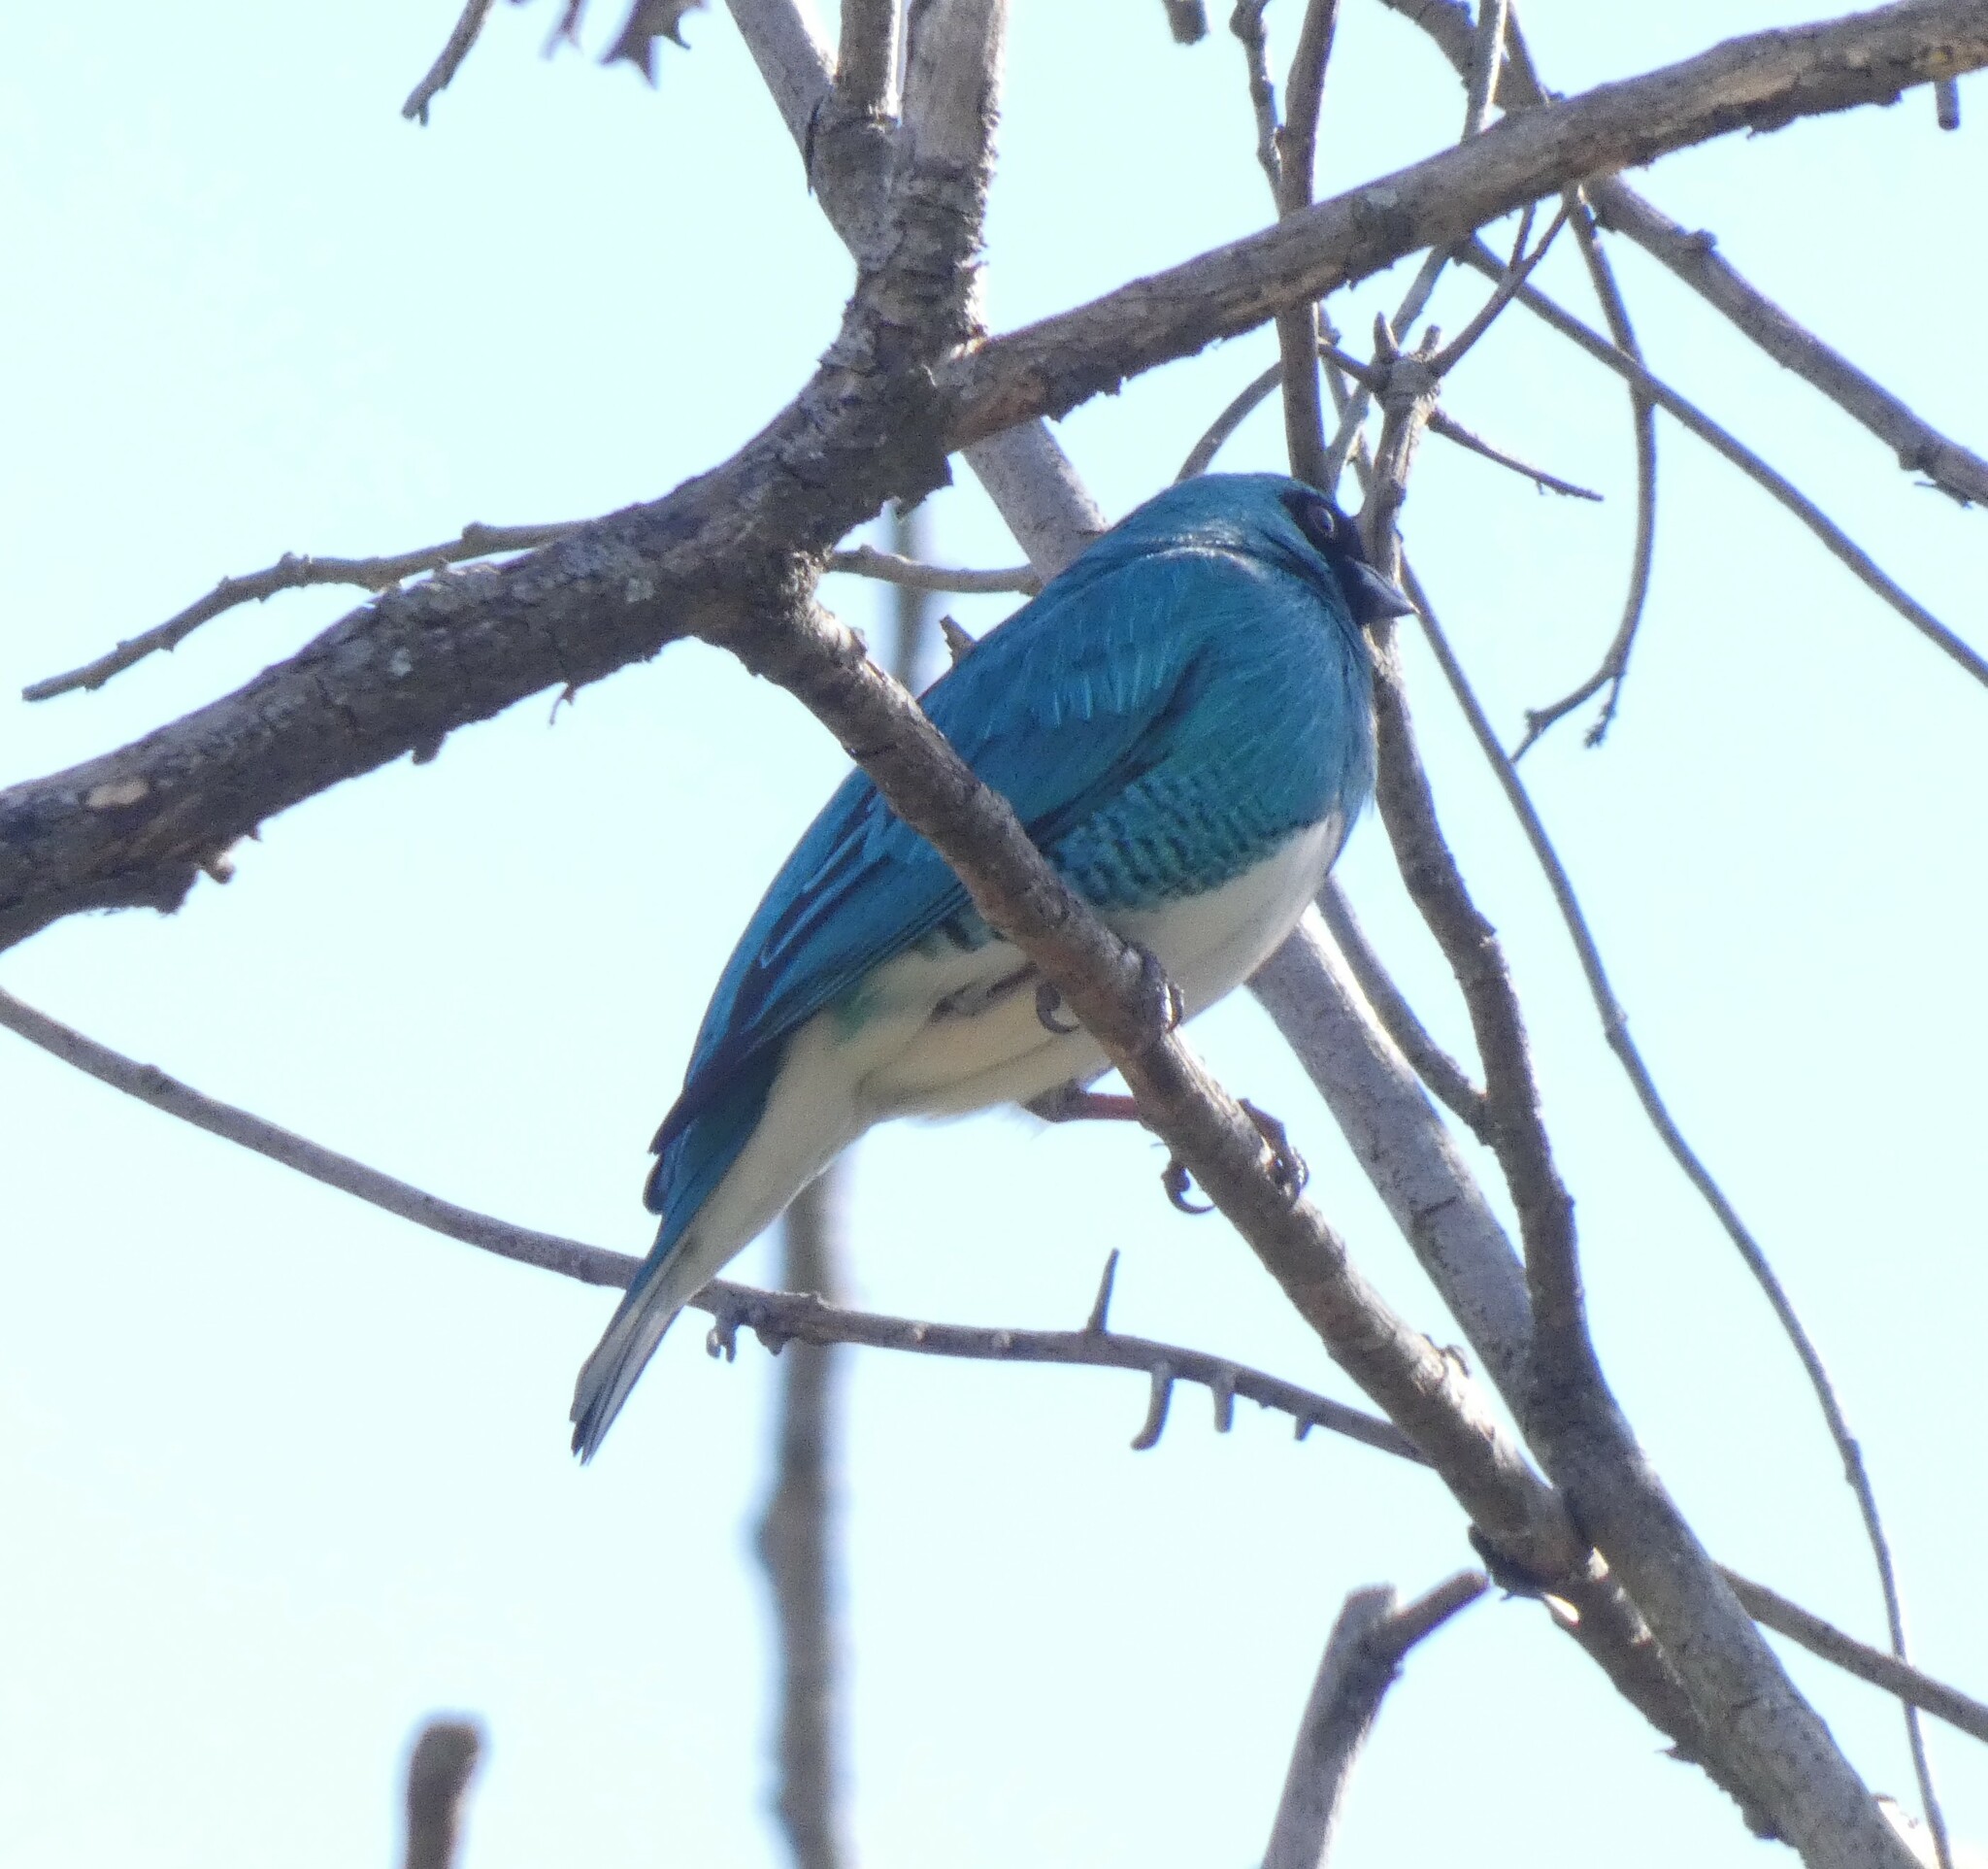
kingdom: Animalia
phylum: Chordata
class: Aves
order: Passeriformes
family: Thraupidae
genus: Tersina
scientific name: Tersina viridis
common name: Swallow tanager
